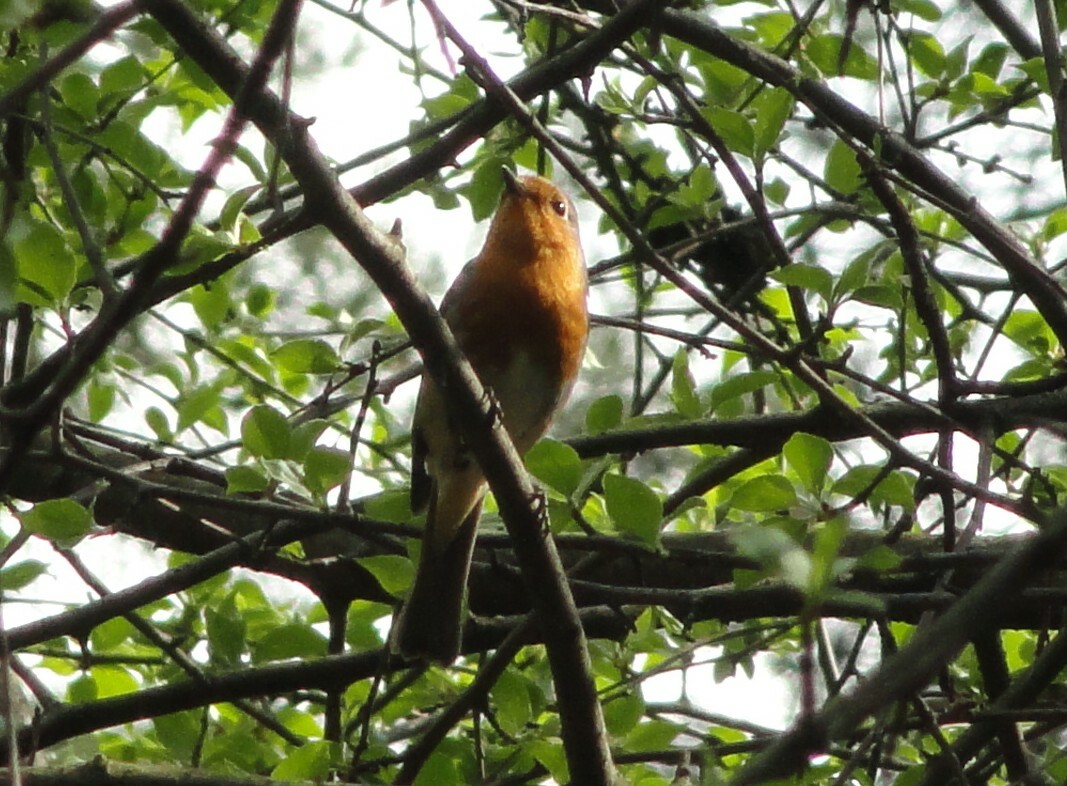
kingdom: Animalia
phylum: Chordata
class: Aves
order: Passeriformes
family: Muscicapidae
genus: Erithacus
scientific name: Erithacus rubecula
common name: European robin
